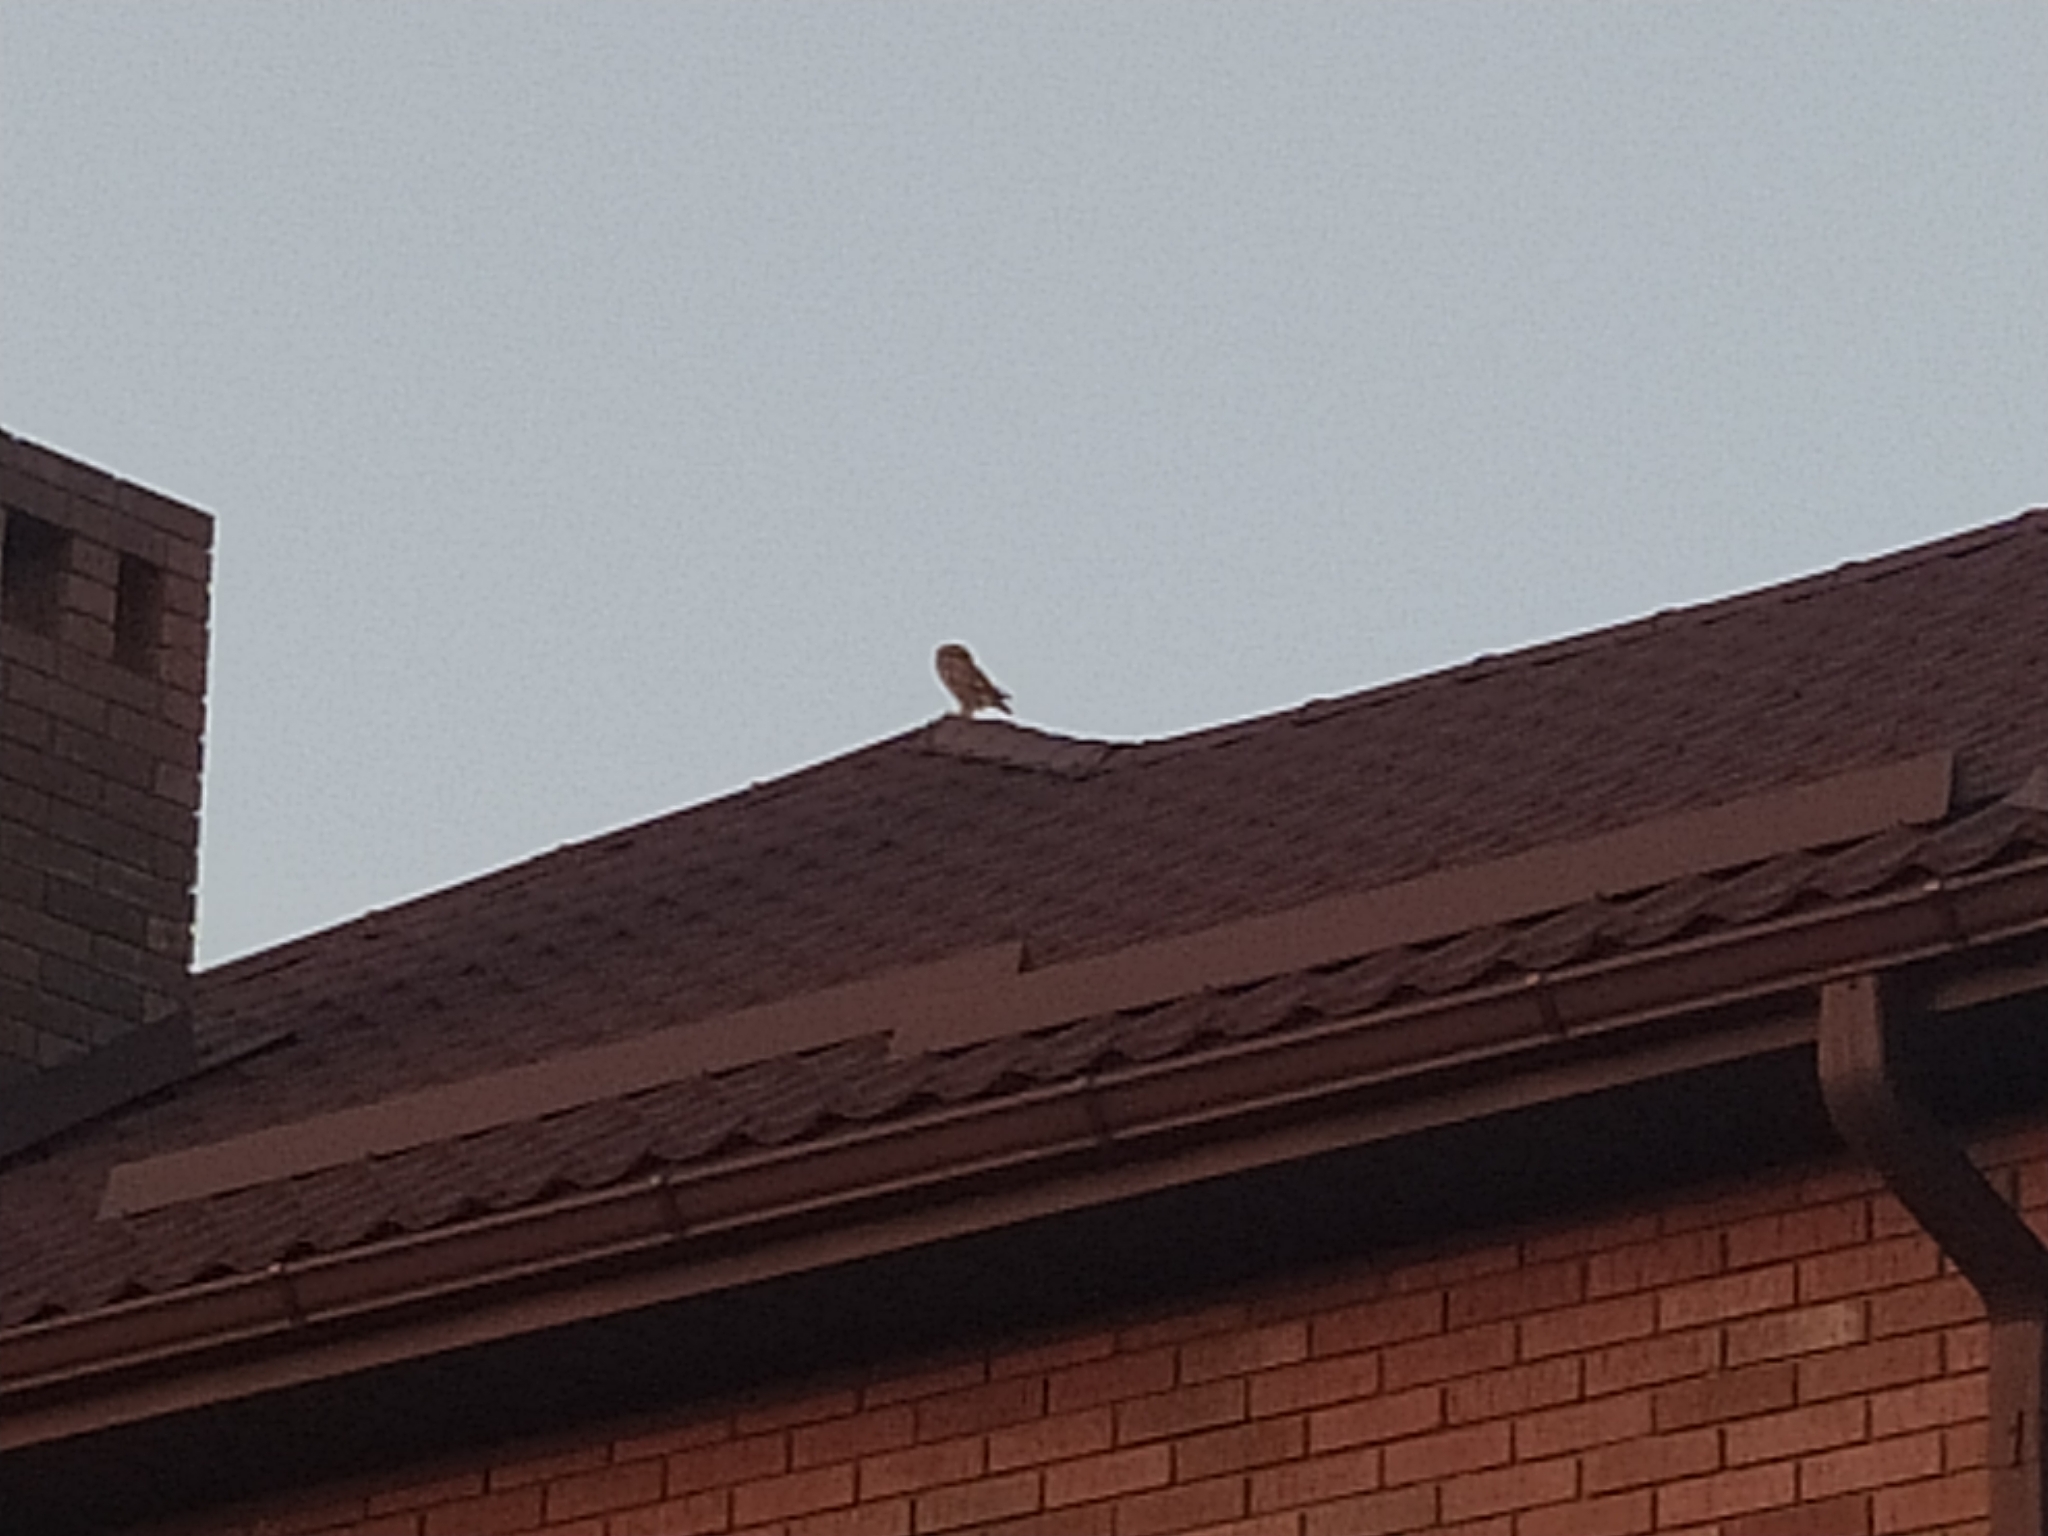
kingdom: Animalia
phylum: Chordata
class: Aves
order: Strigiformes
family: Strigidae
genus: Athene
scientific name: Athene noctua
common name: Little owl
